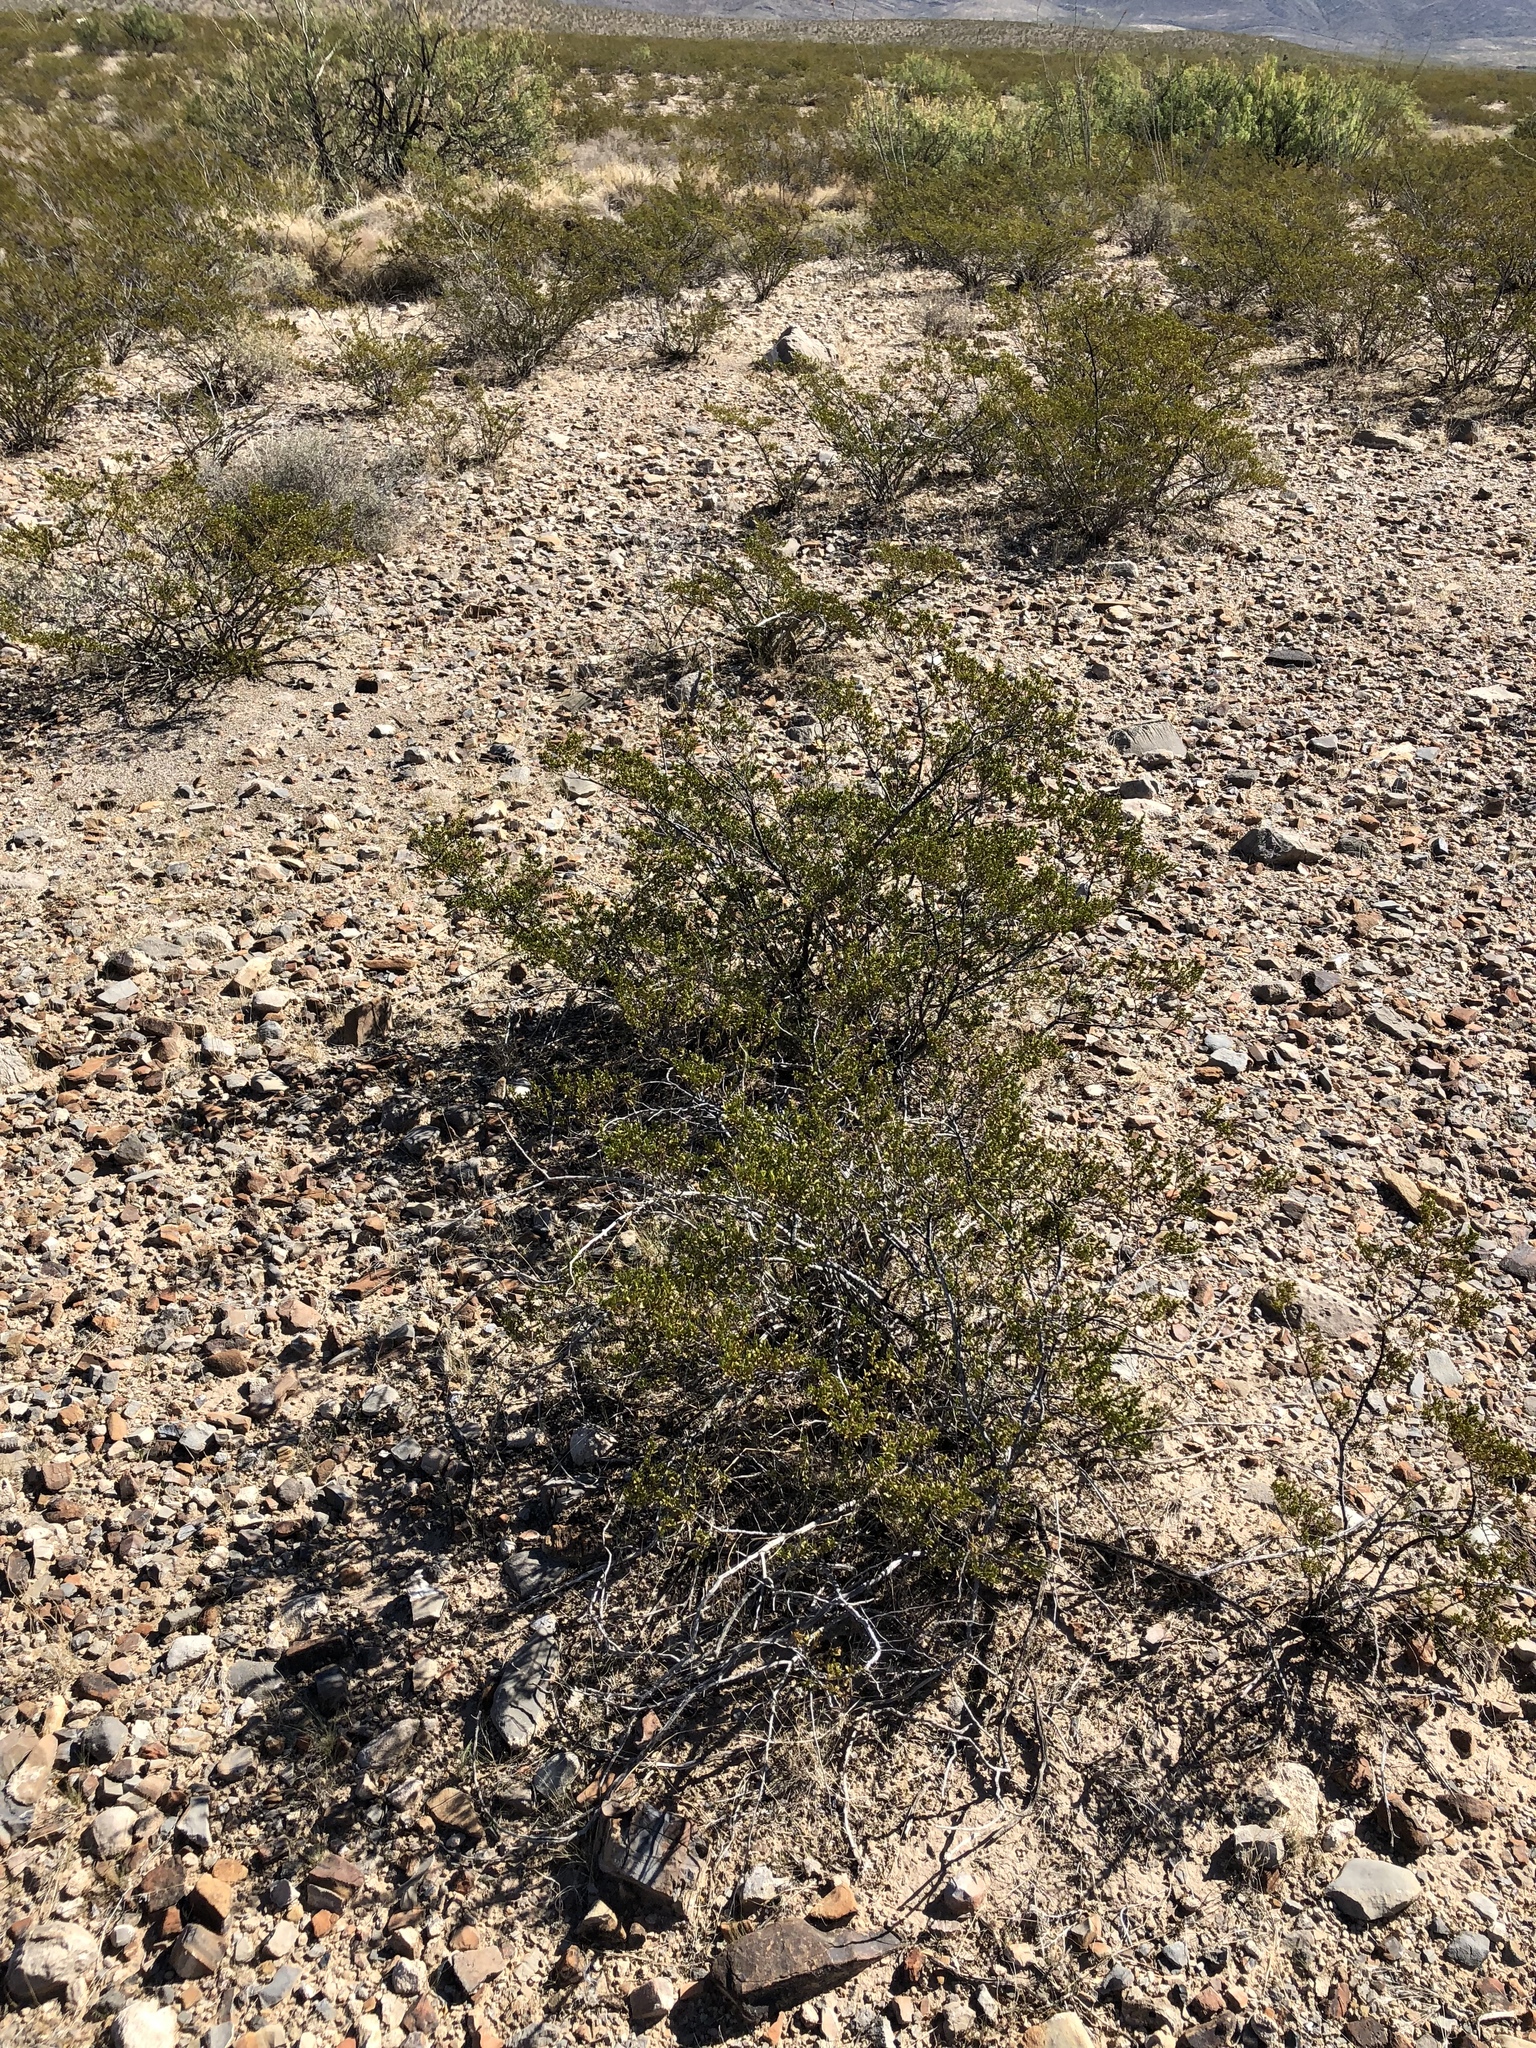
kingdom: Plantae
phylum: Tracheophyta
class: Magnoliopsida
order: Zygophyllales
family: Zygophyllaceae
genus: Larrea
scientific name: Larrea tridentata
